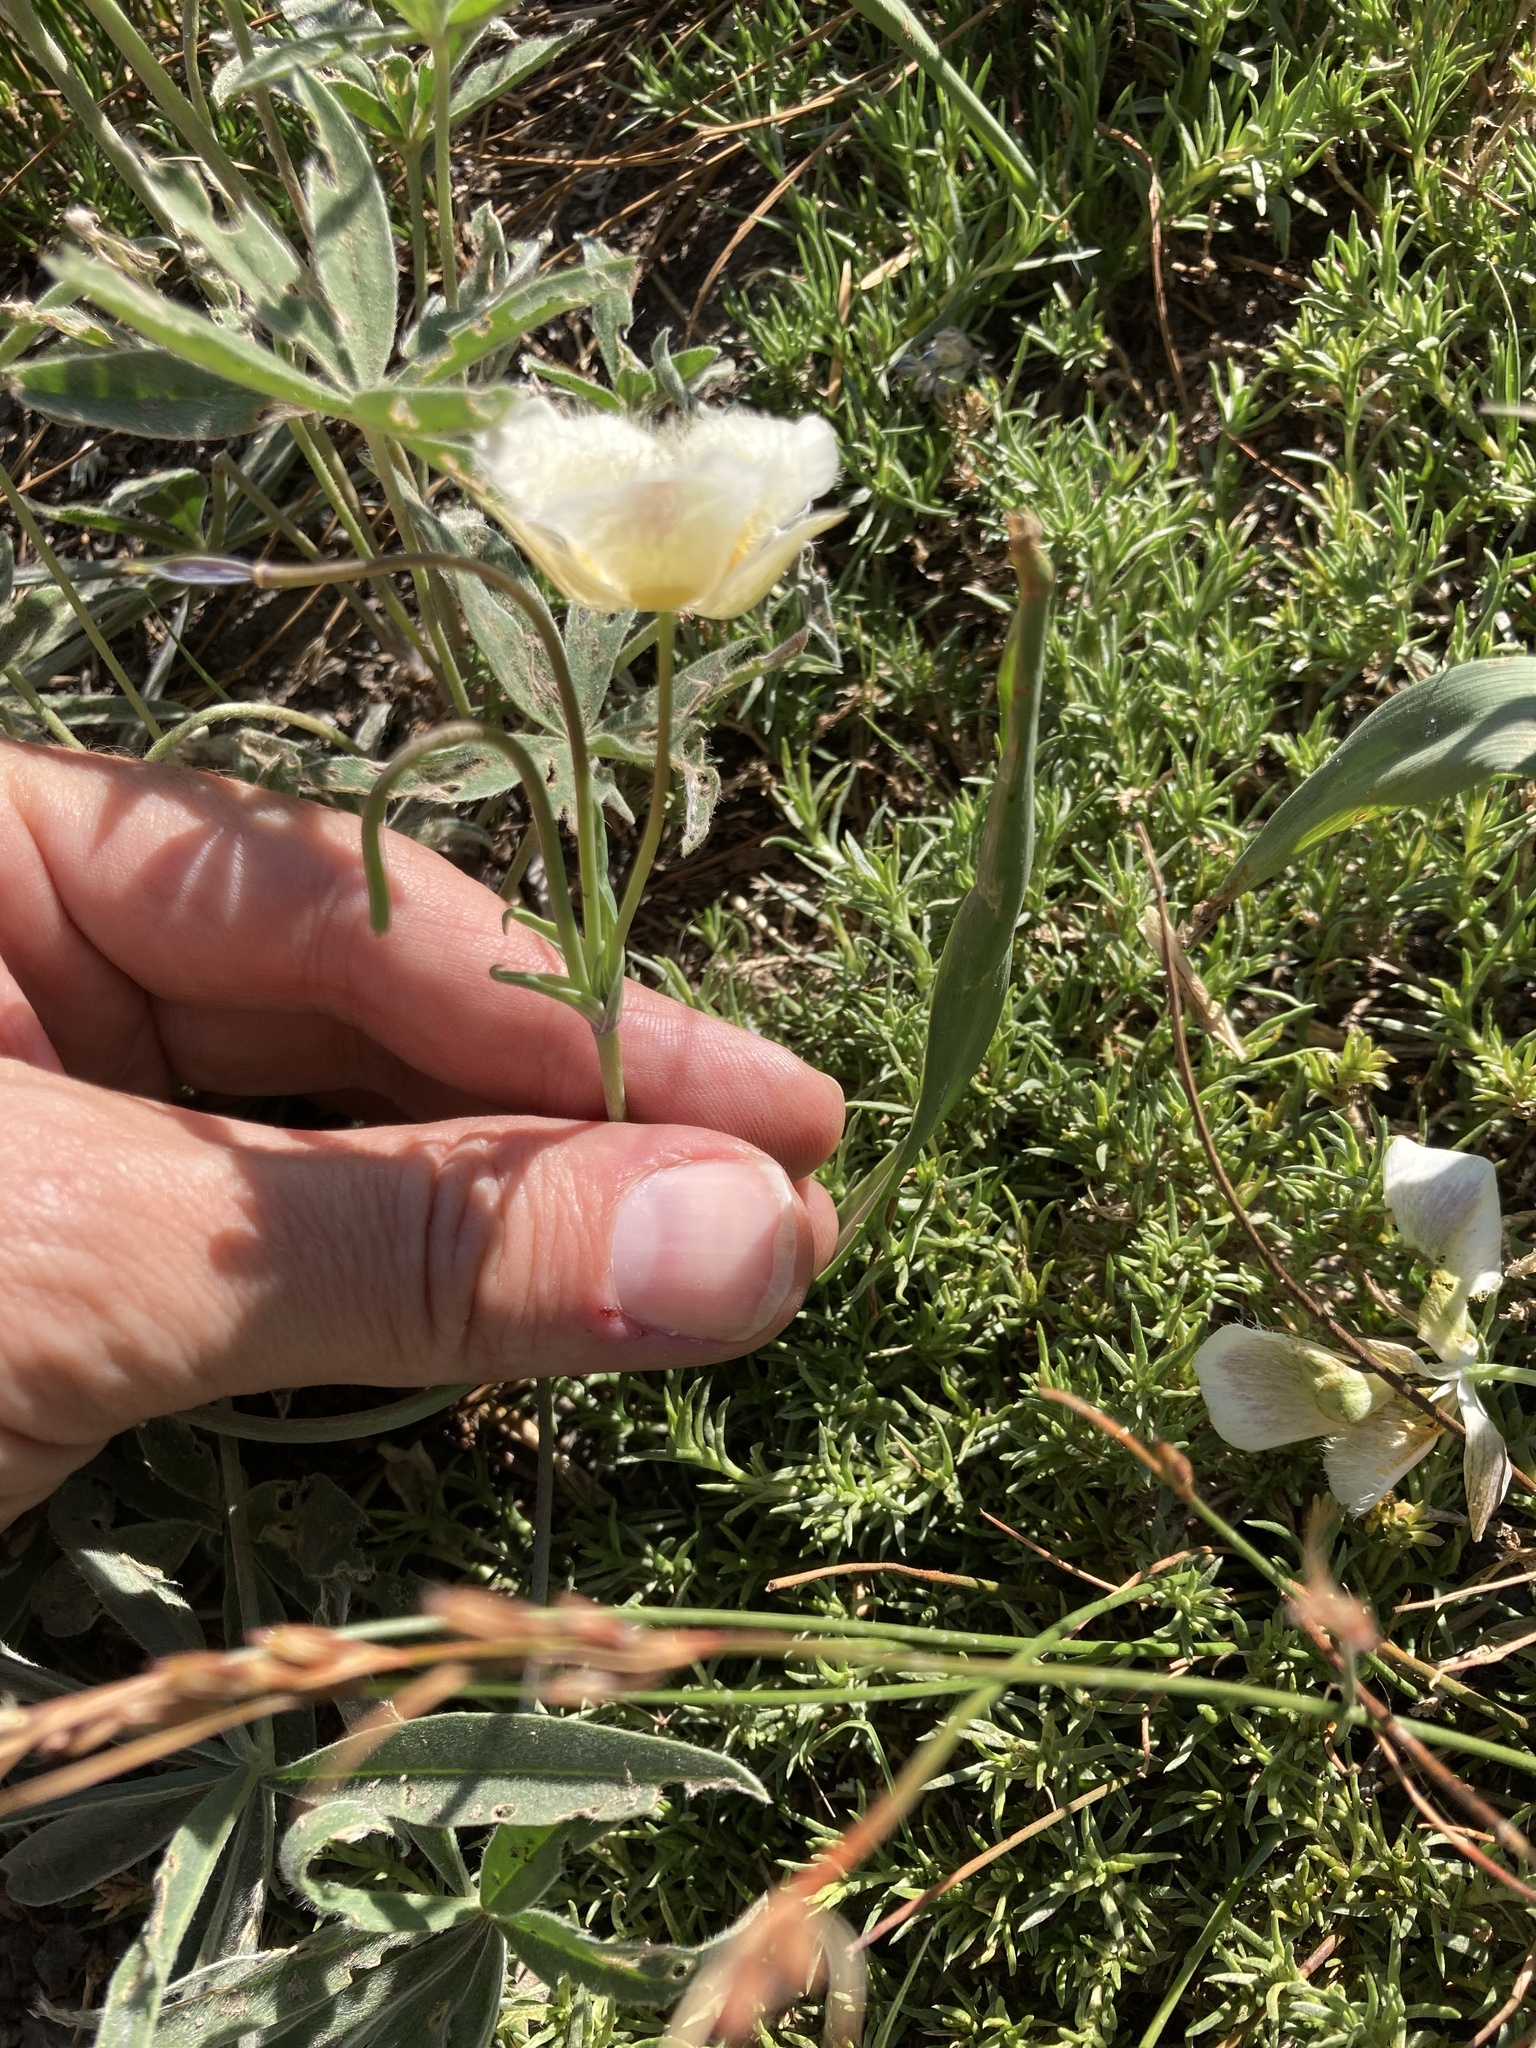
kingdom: Plantae
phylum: Tracheophyta
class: Liliopsida
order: Liliales
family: Liliaceae
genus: Calochortus
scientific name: Calochortus subalpinus
